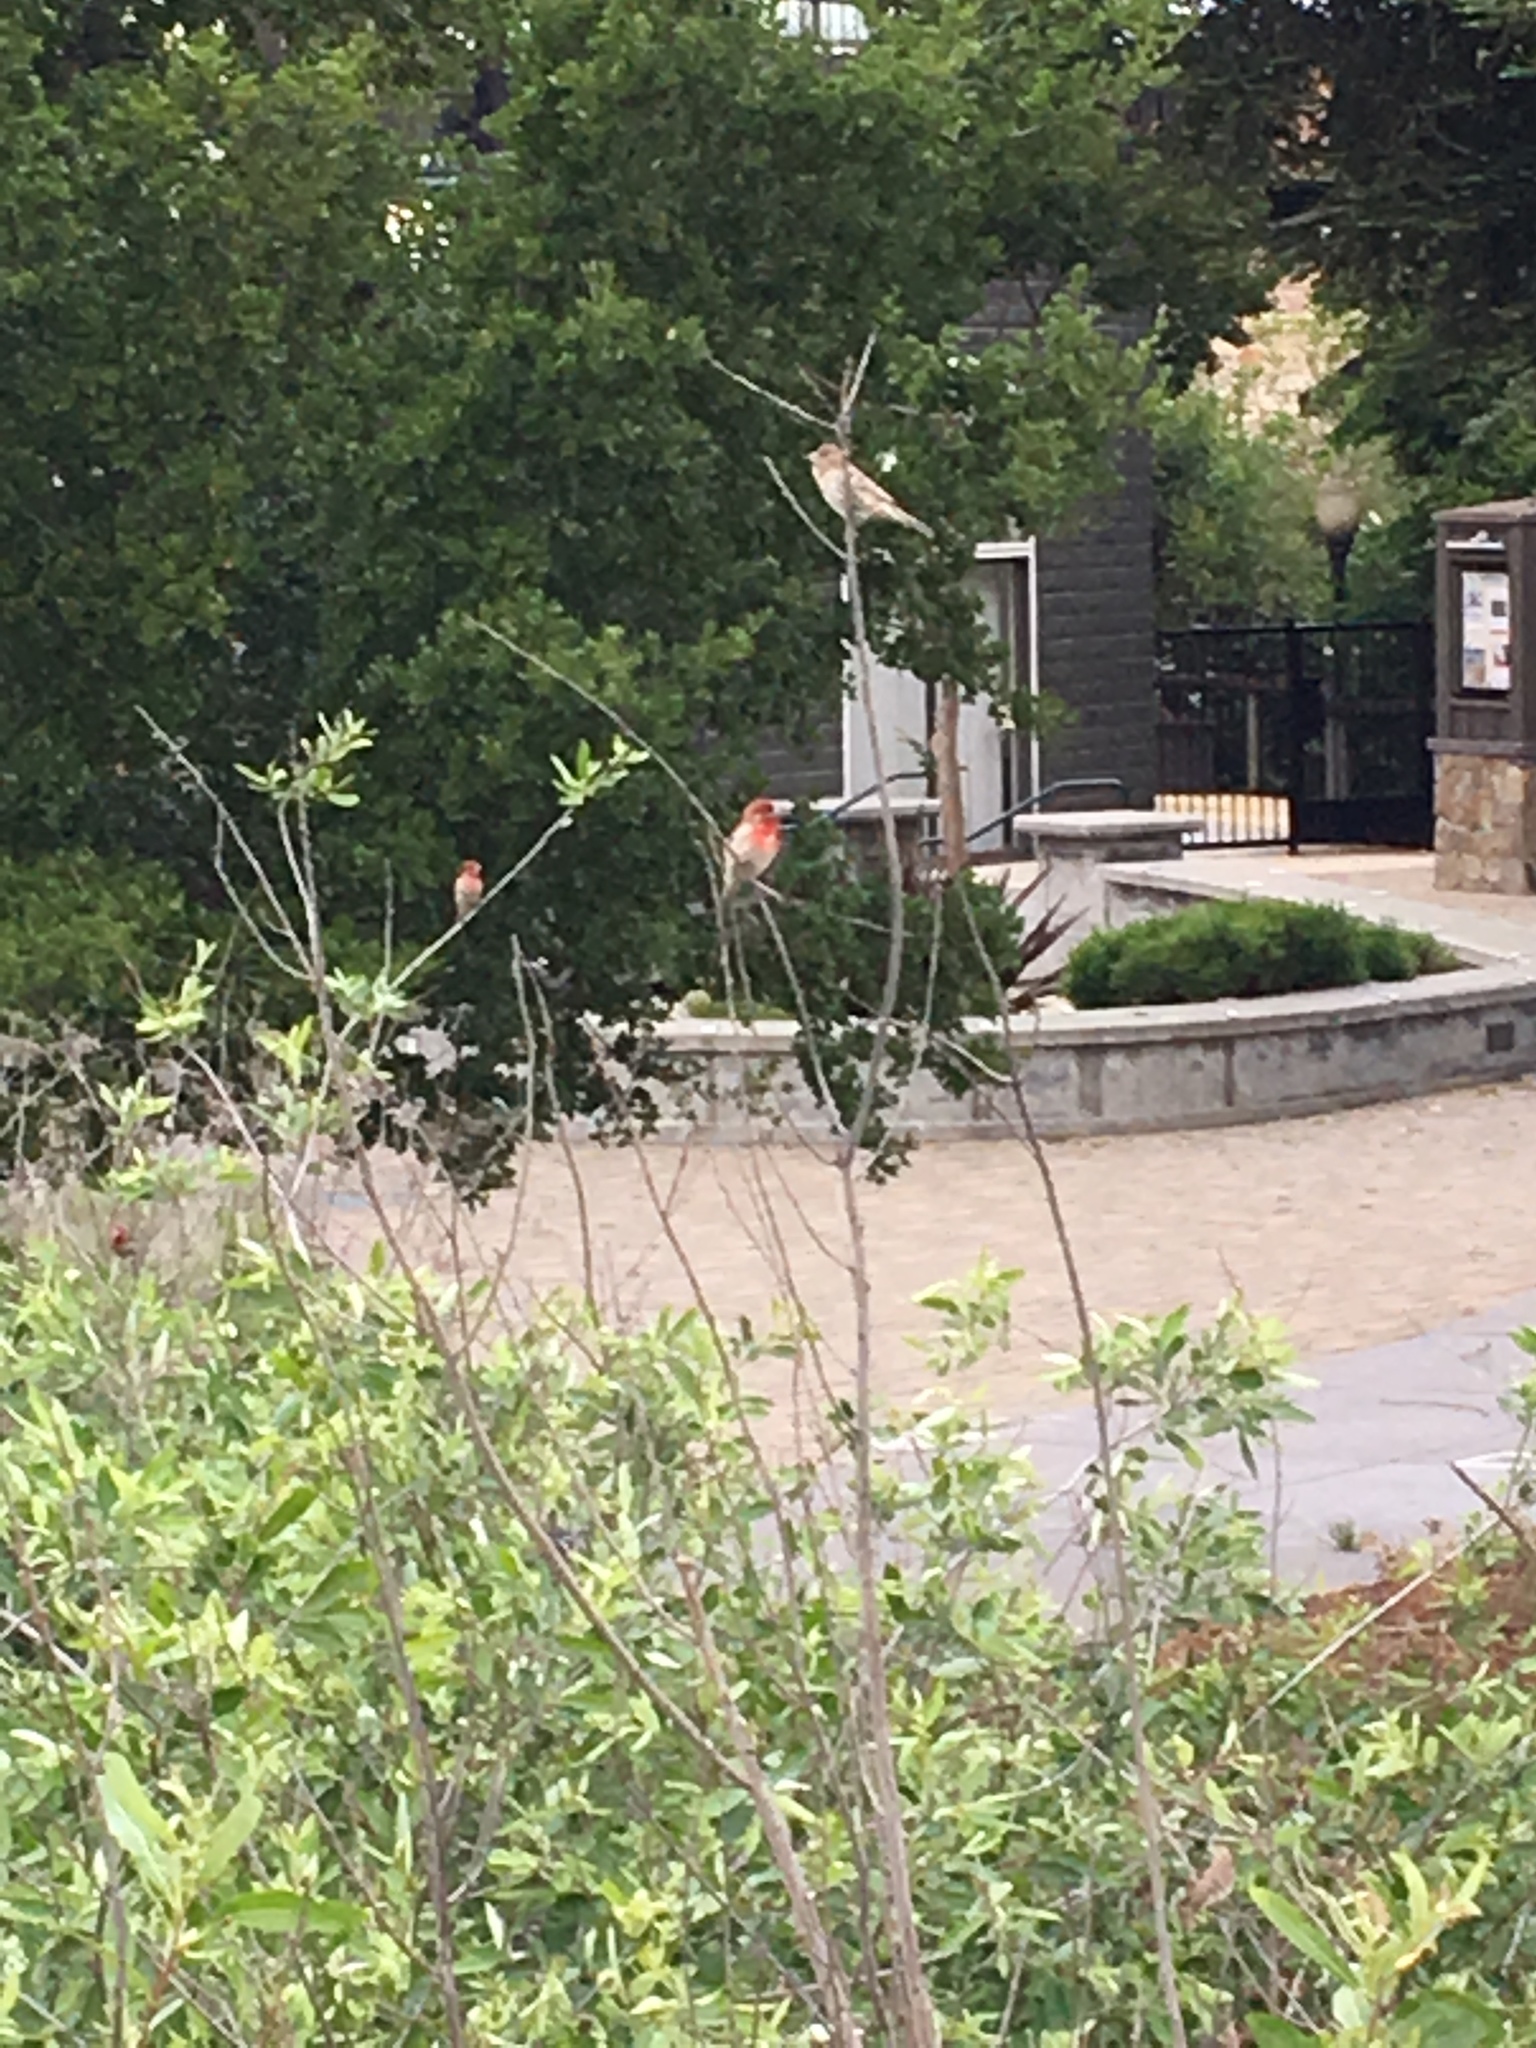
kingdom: Animalia
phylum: Chordata
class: Aves
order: Passeriformes
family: Fringillidae
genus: Haemorhous
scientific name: Haemorhous mexicanus
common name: House finch
